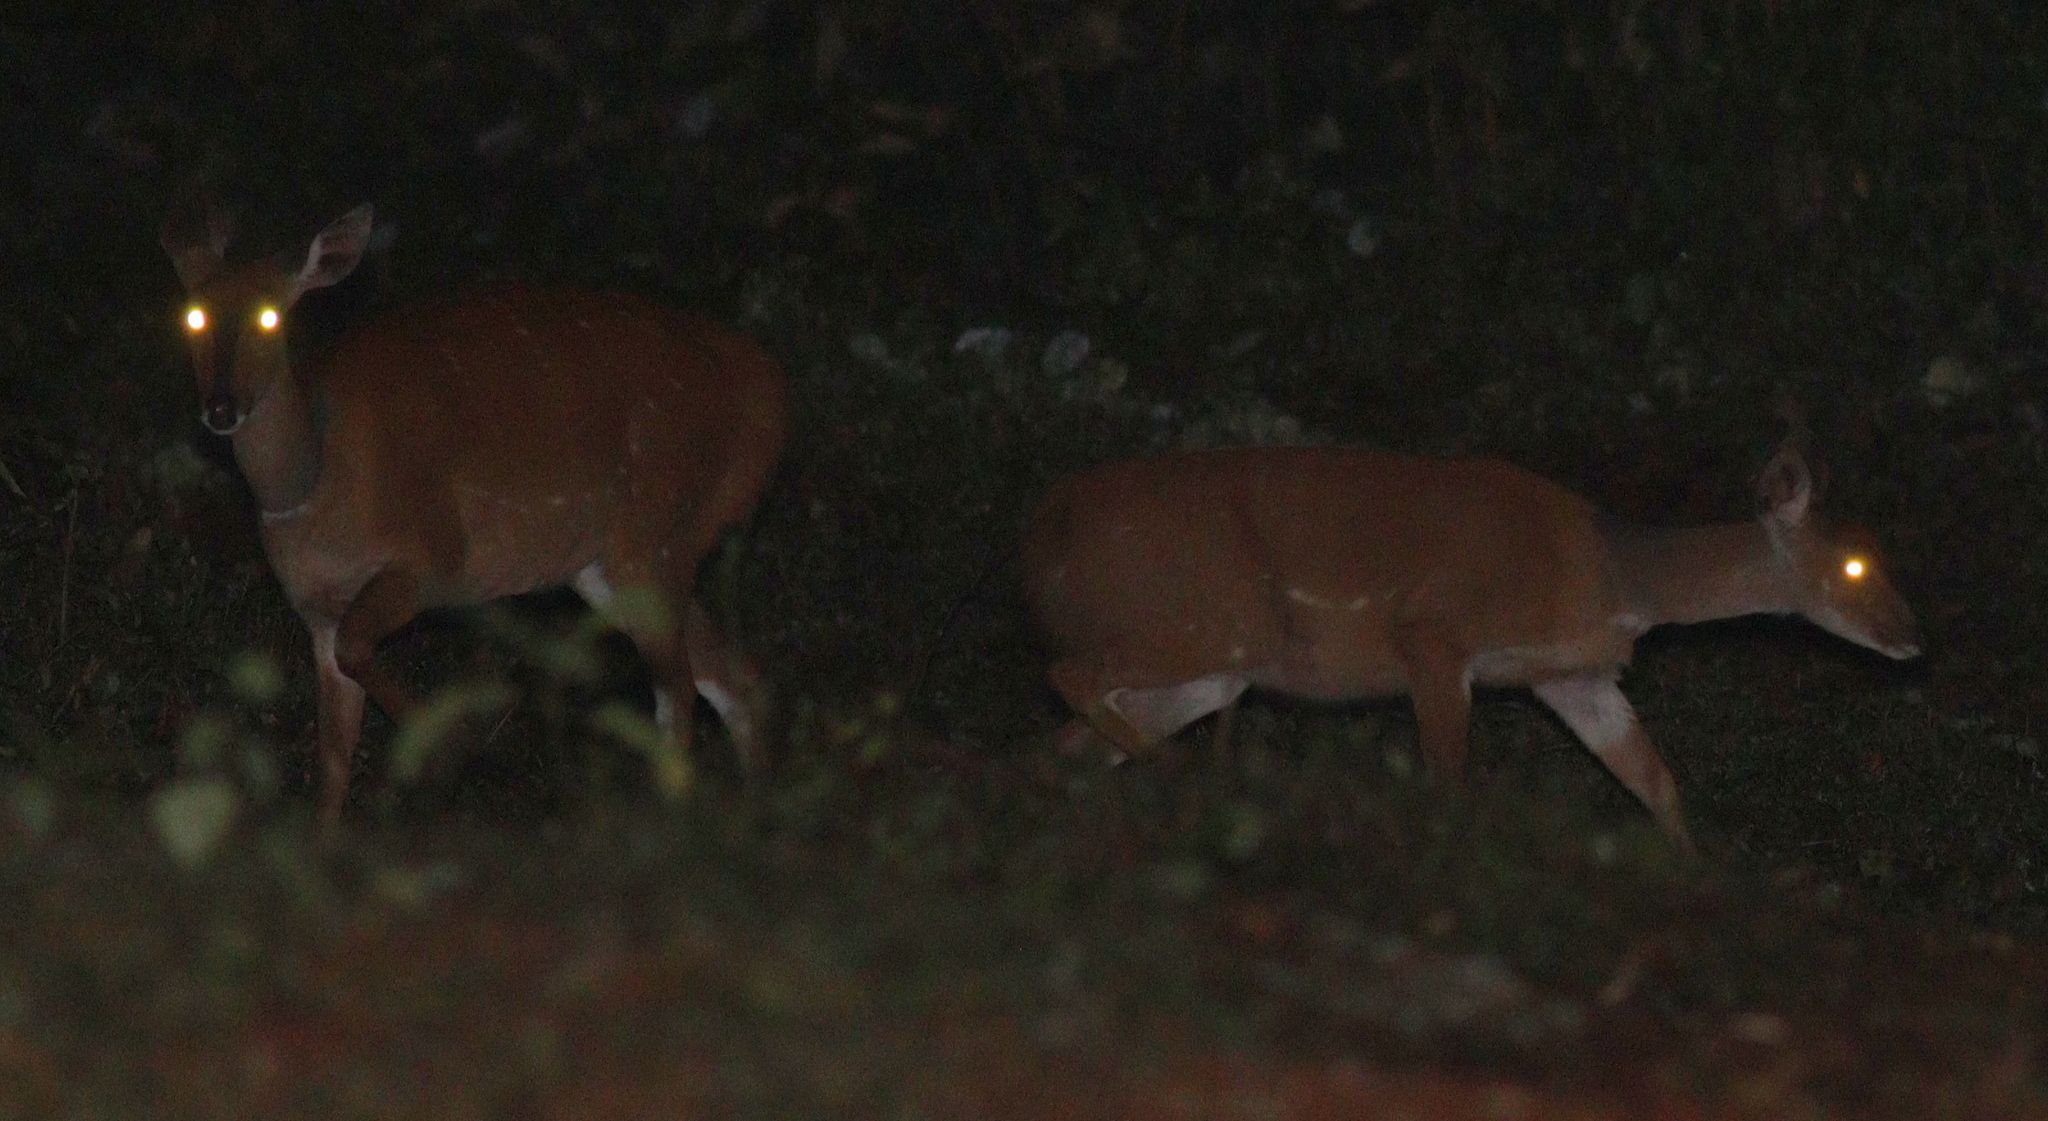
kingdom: Animalia
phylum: Chordata
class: Mammalia
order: Artiodactyla
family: Bovidae
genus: Tragelaphus
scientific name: Tragelaphus scriptus
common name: Bushbuck
